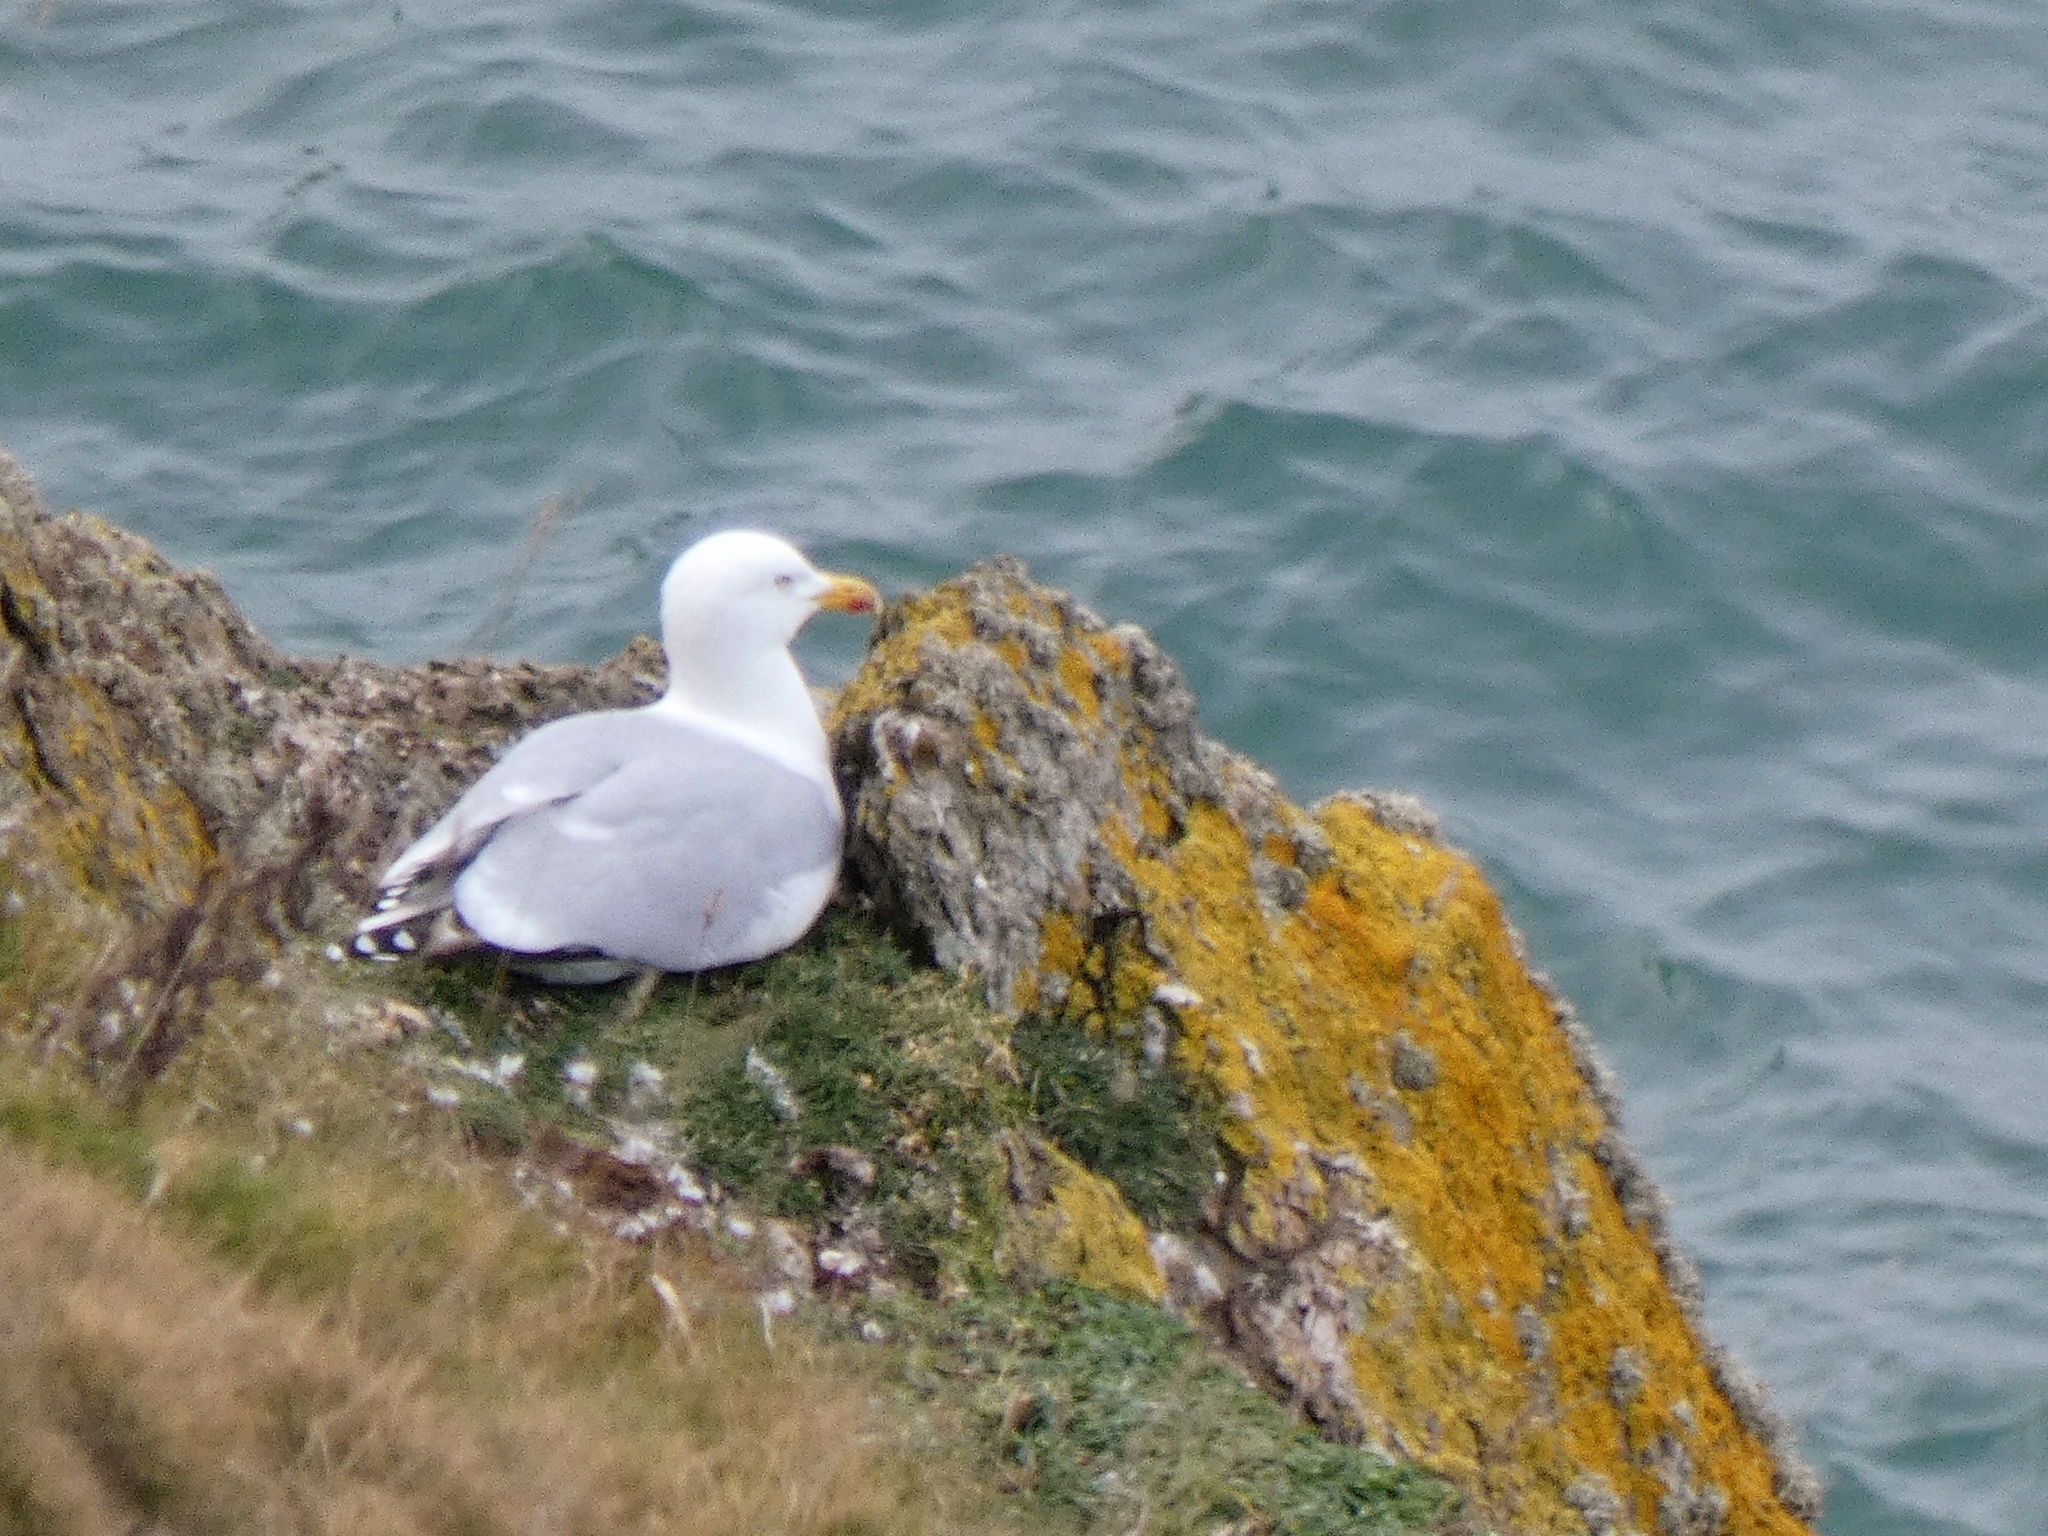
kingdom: Animalia
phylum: Chordata
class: Aves
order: Charadriiformes
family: Laridae
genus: Larus
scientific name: Larus argentatus
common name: Herring gull
